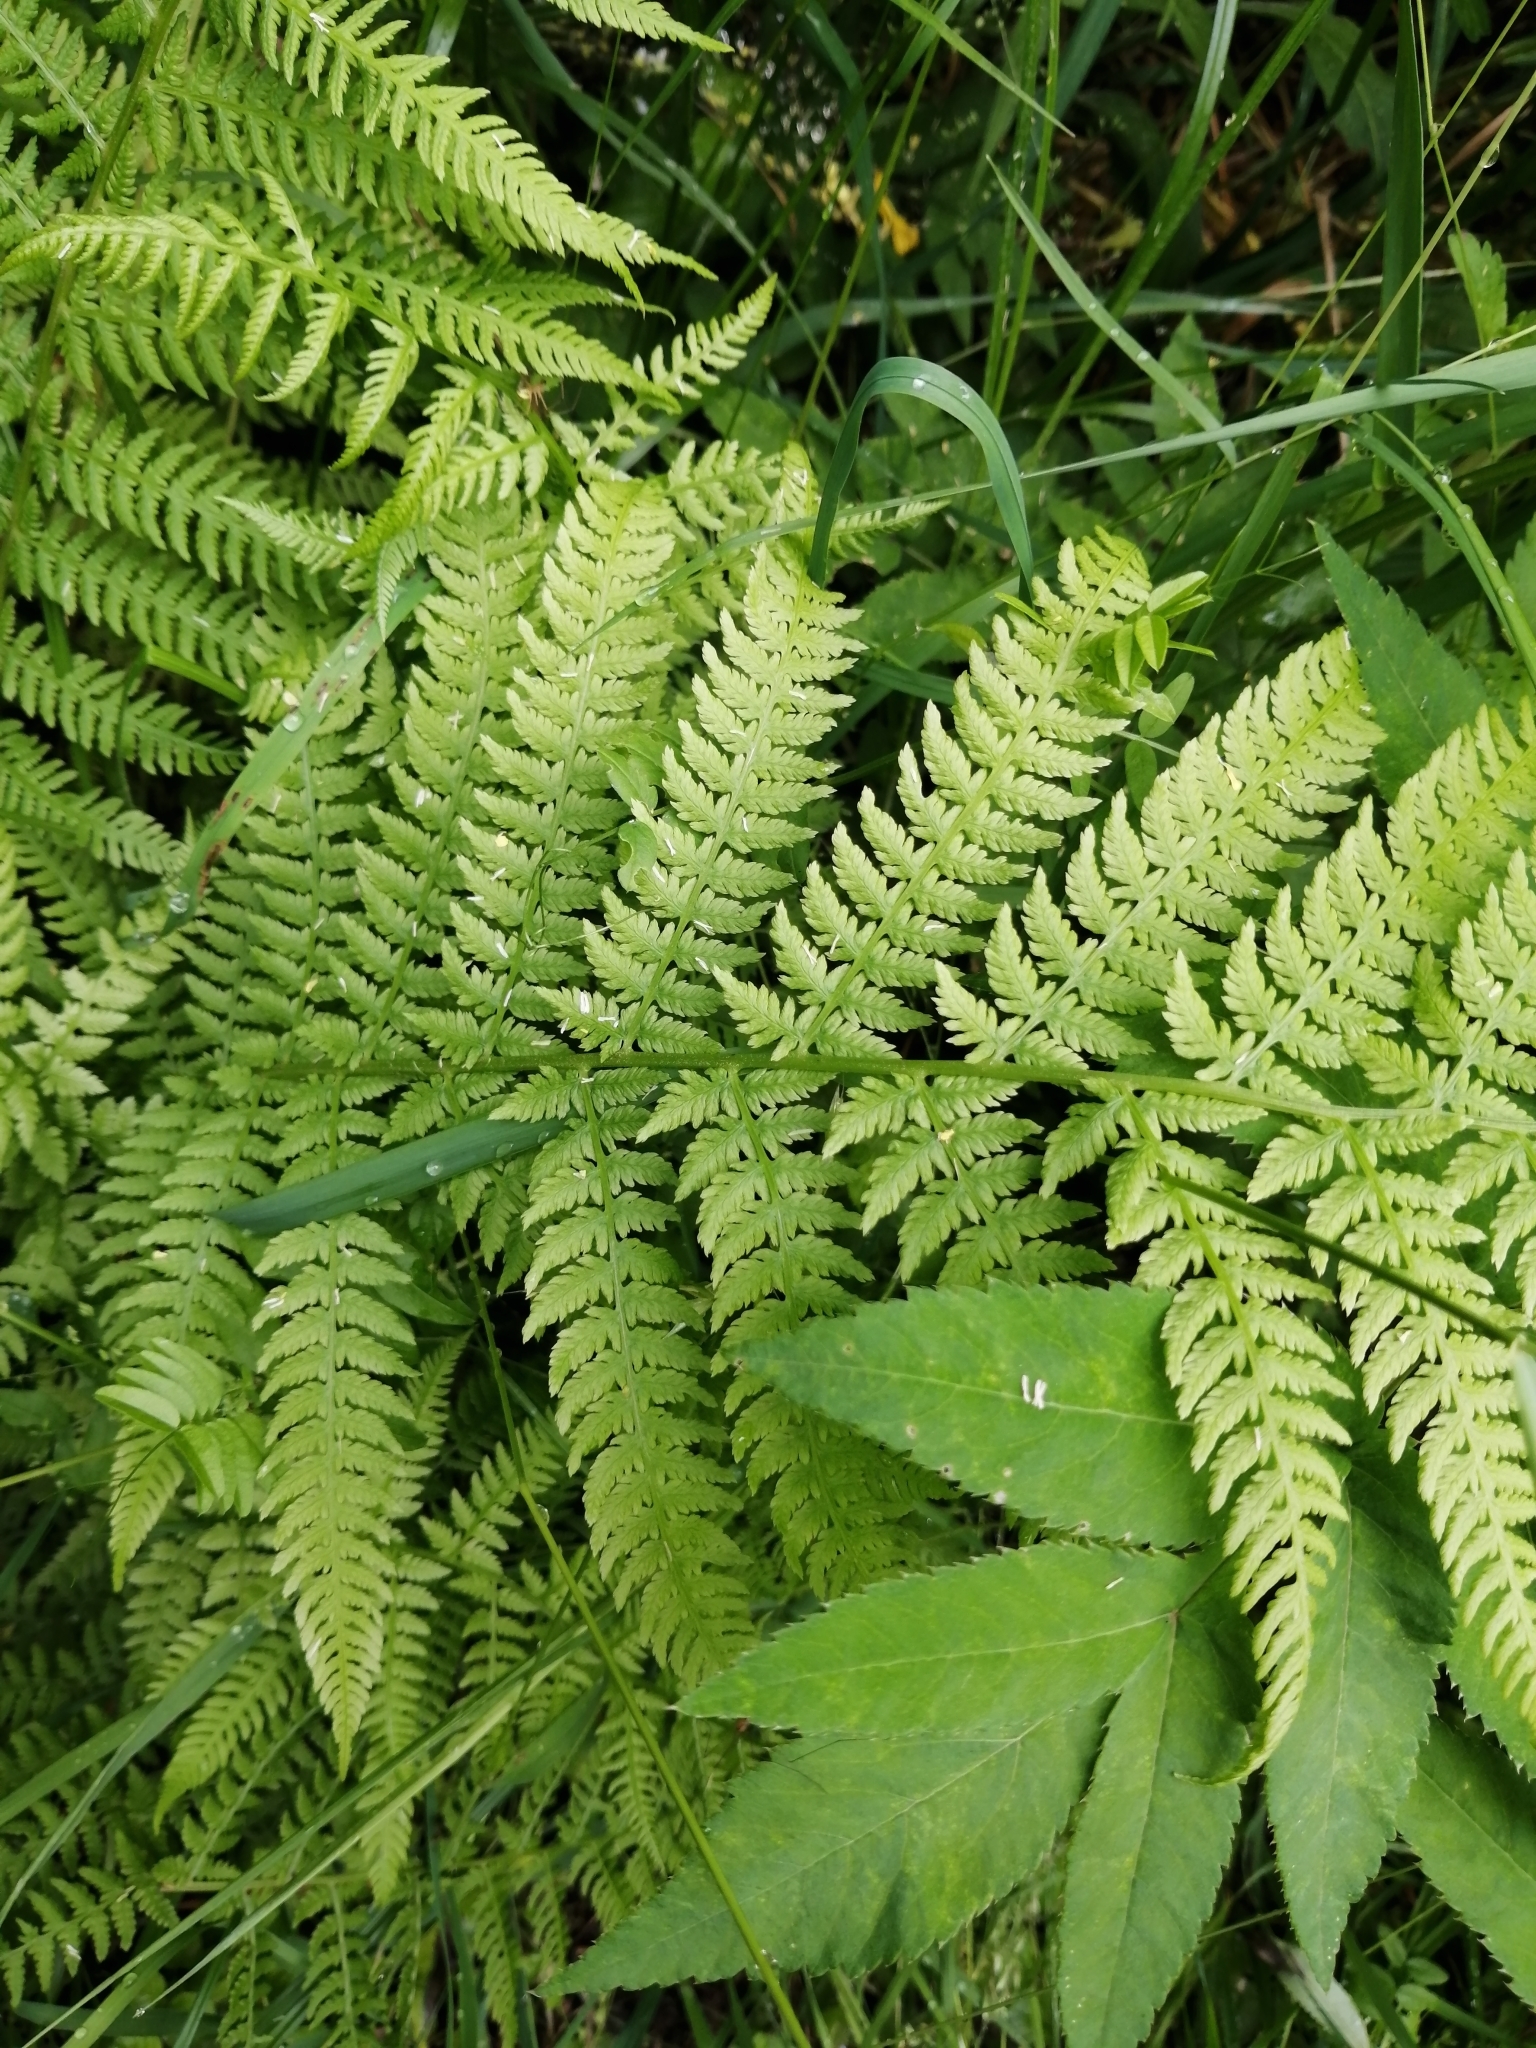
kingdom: Plantae
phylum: Tracheophyta
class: Polypodiopsida
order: Polypodiales
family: Athyriaceae
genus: Athyrium
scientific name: Athyrium filix-femina
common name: Lady fern
